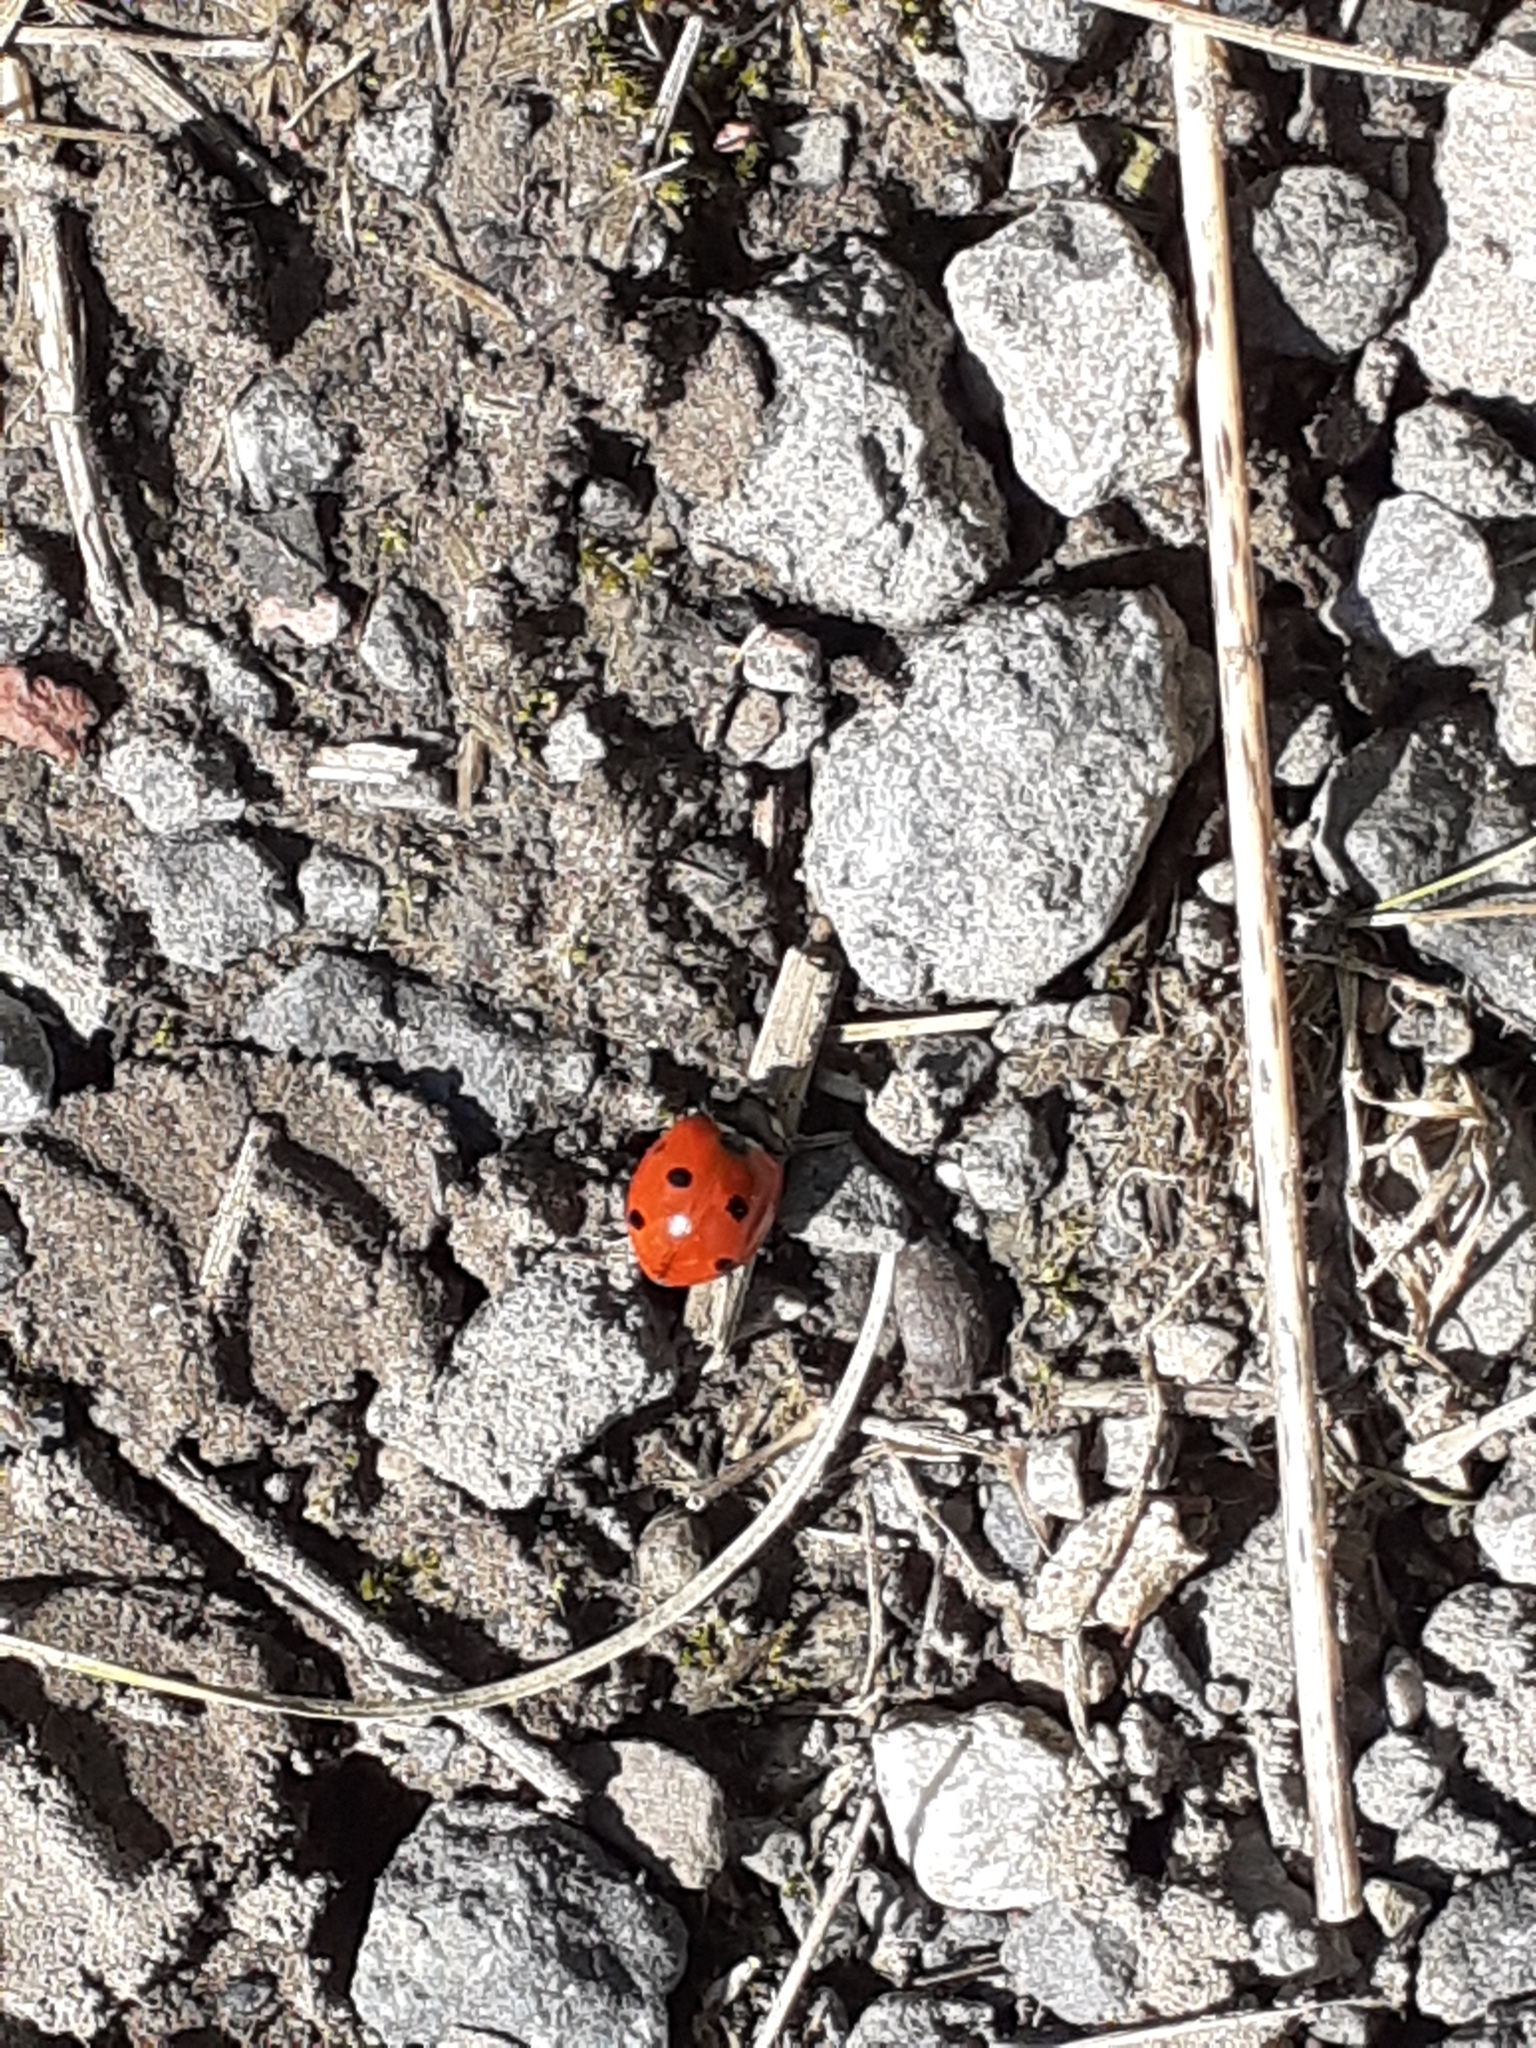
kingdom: Animalia
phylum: Arthropoda
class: Insecta
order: Coleoptera
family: Coccinellidae
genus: Coccinella
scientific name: Coccinella septempunctata
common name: Sevenspotted lady beetle
